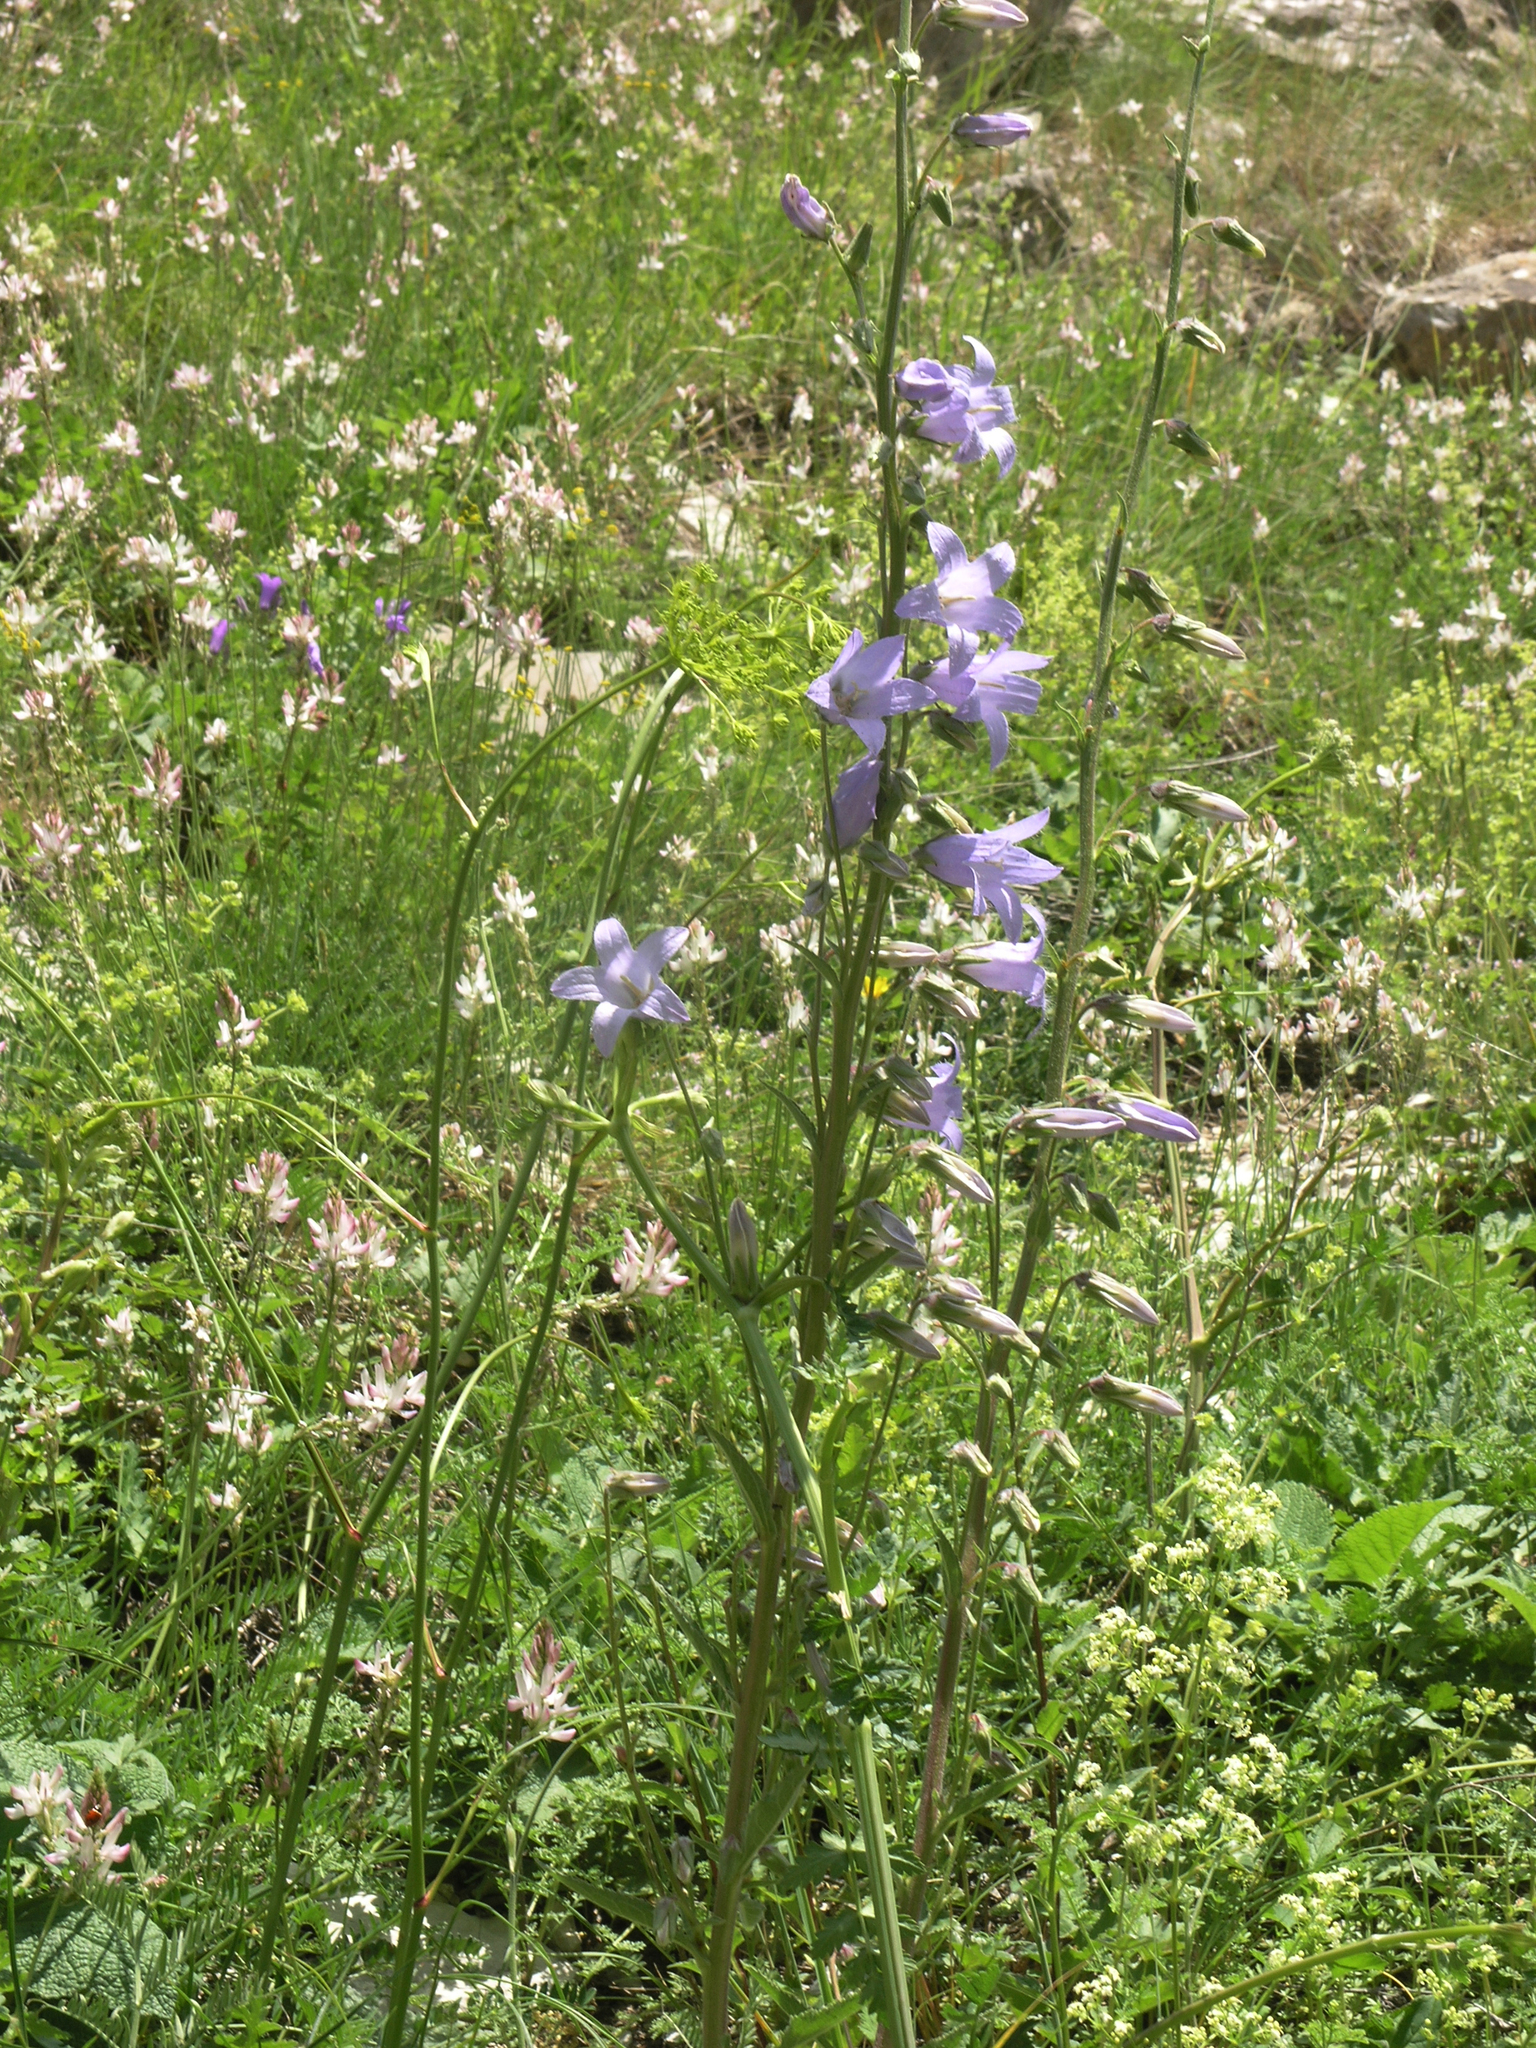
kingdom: Plantae
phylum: Tracheophyta
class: Magnoliopsida
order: Asterales
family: Campanulaceae
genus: Campanula
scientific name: Campanula sarmatica
